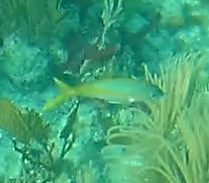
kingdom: Animalia
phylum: Chordata
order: Perciformes
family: Lutjanidae
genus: Ocyurus
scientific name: Ocyurus chrysurus
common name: Yellowtail snapper
